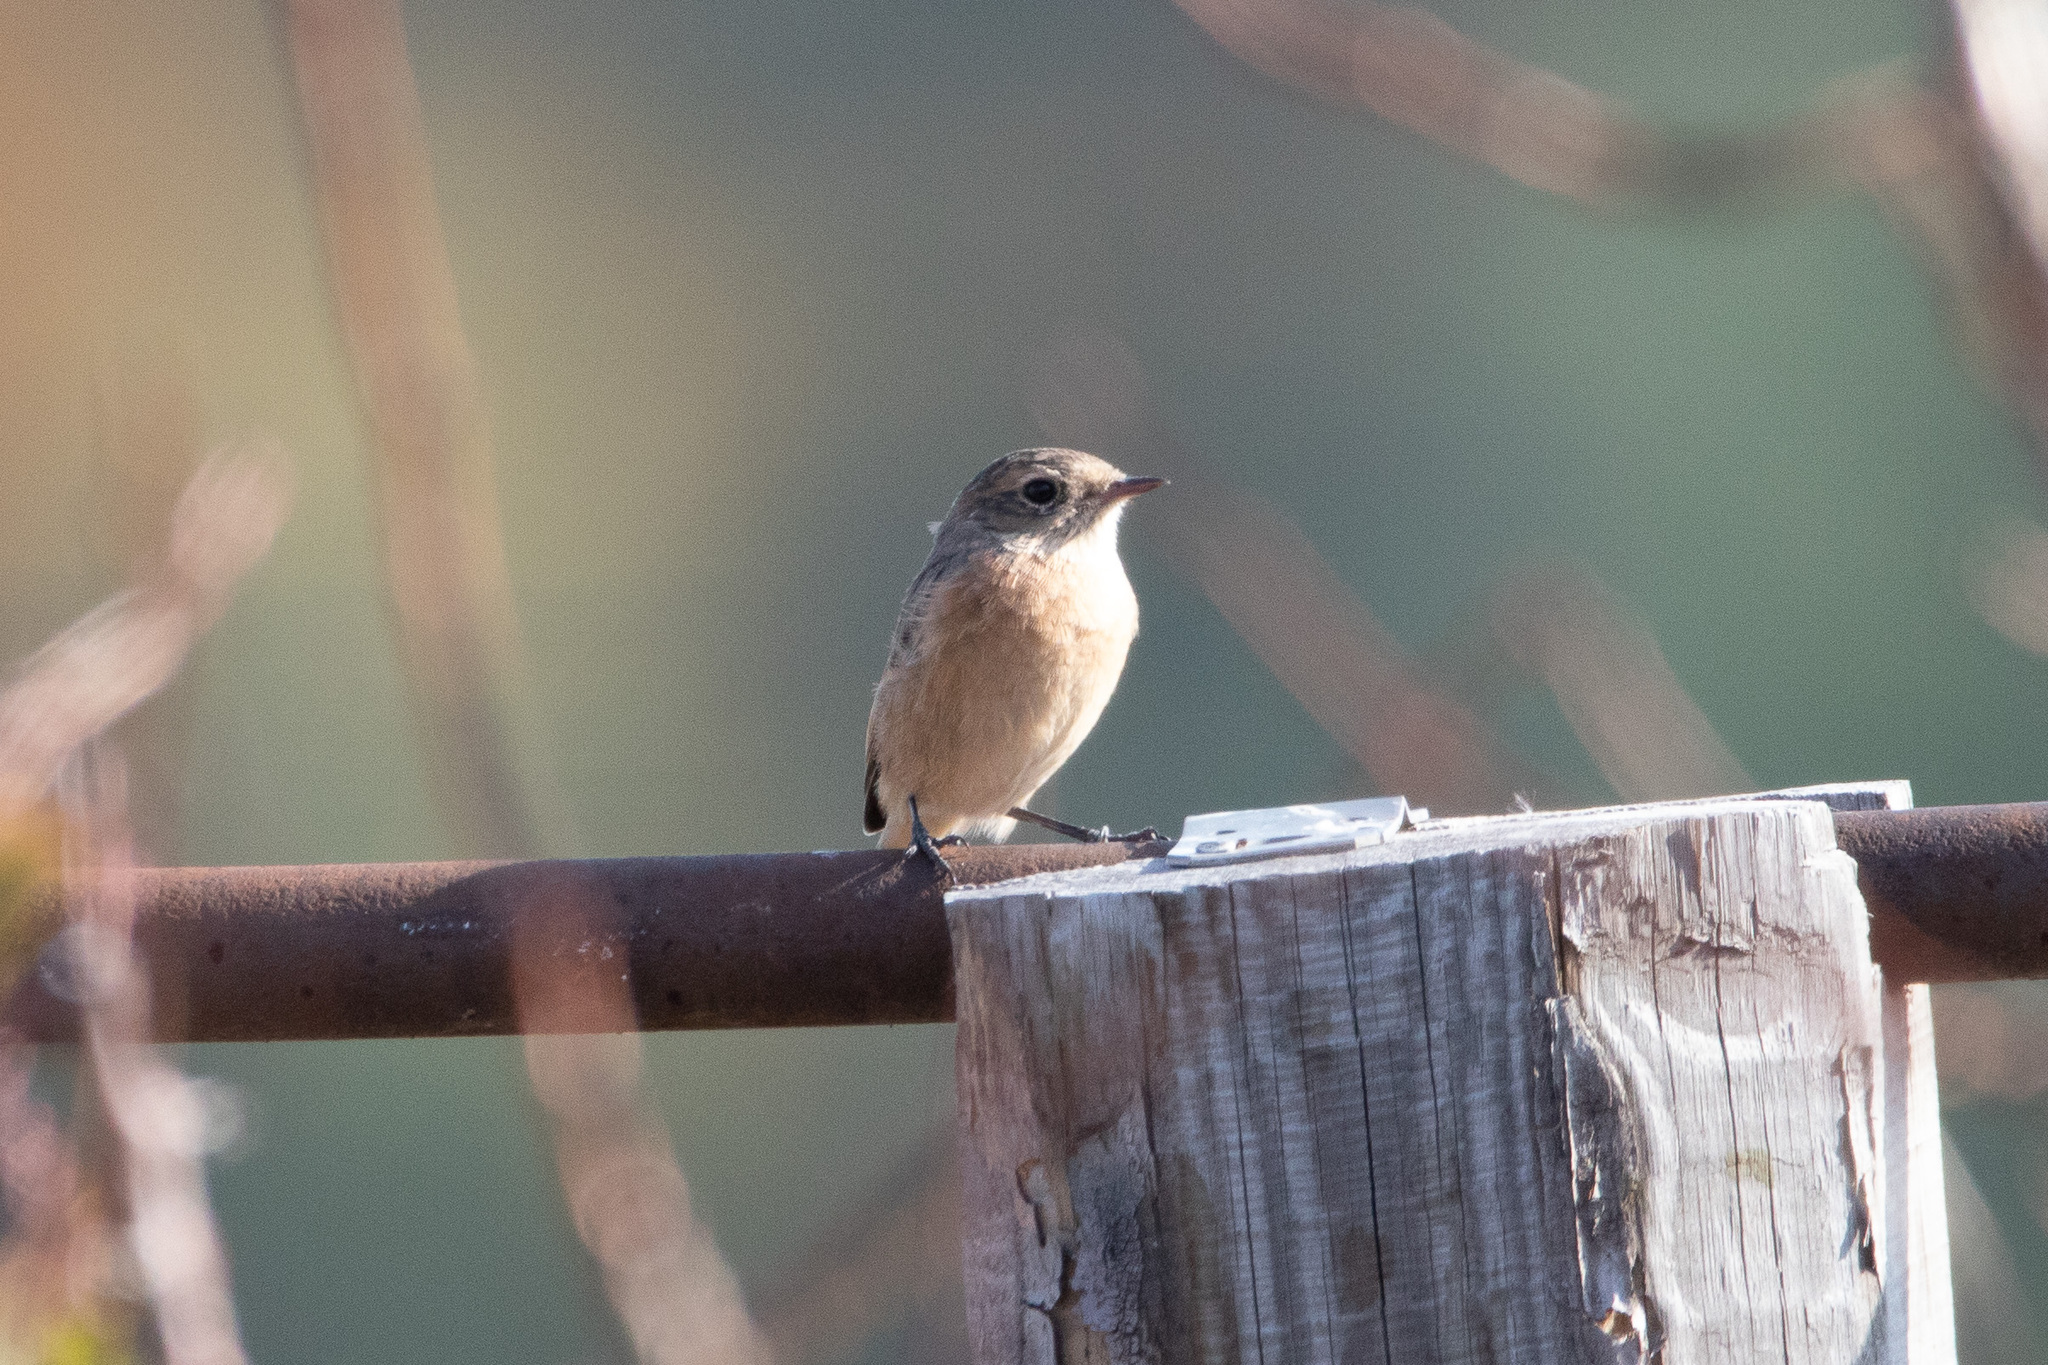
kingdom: Animalia
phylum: Chordata
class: Aves
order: Passeriformes
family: Muscicapidae
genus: Phoenicurus
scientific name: Phoenicurus phoenicurus
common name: Common redstart
